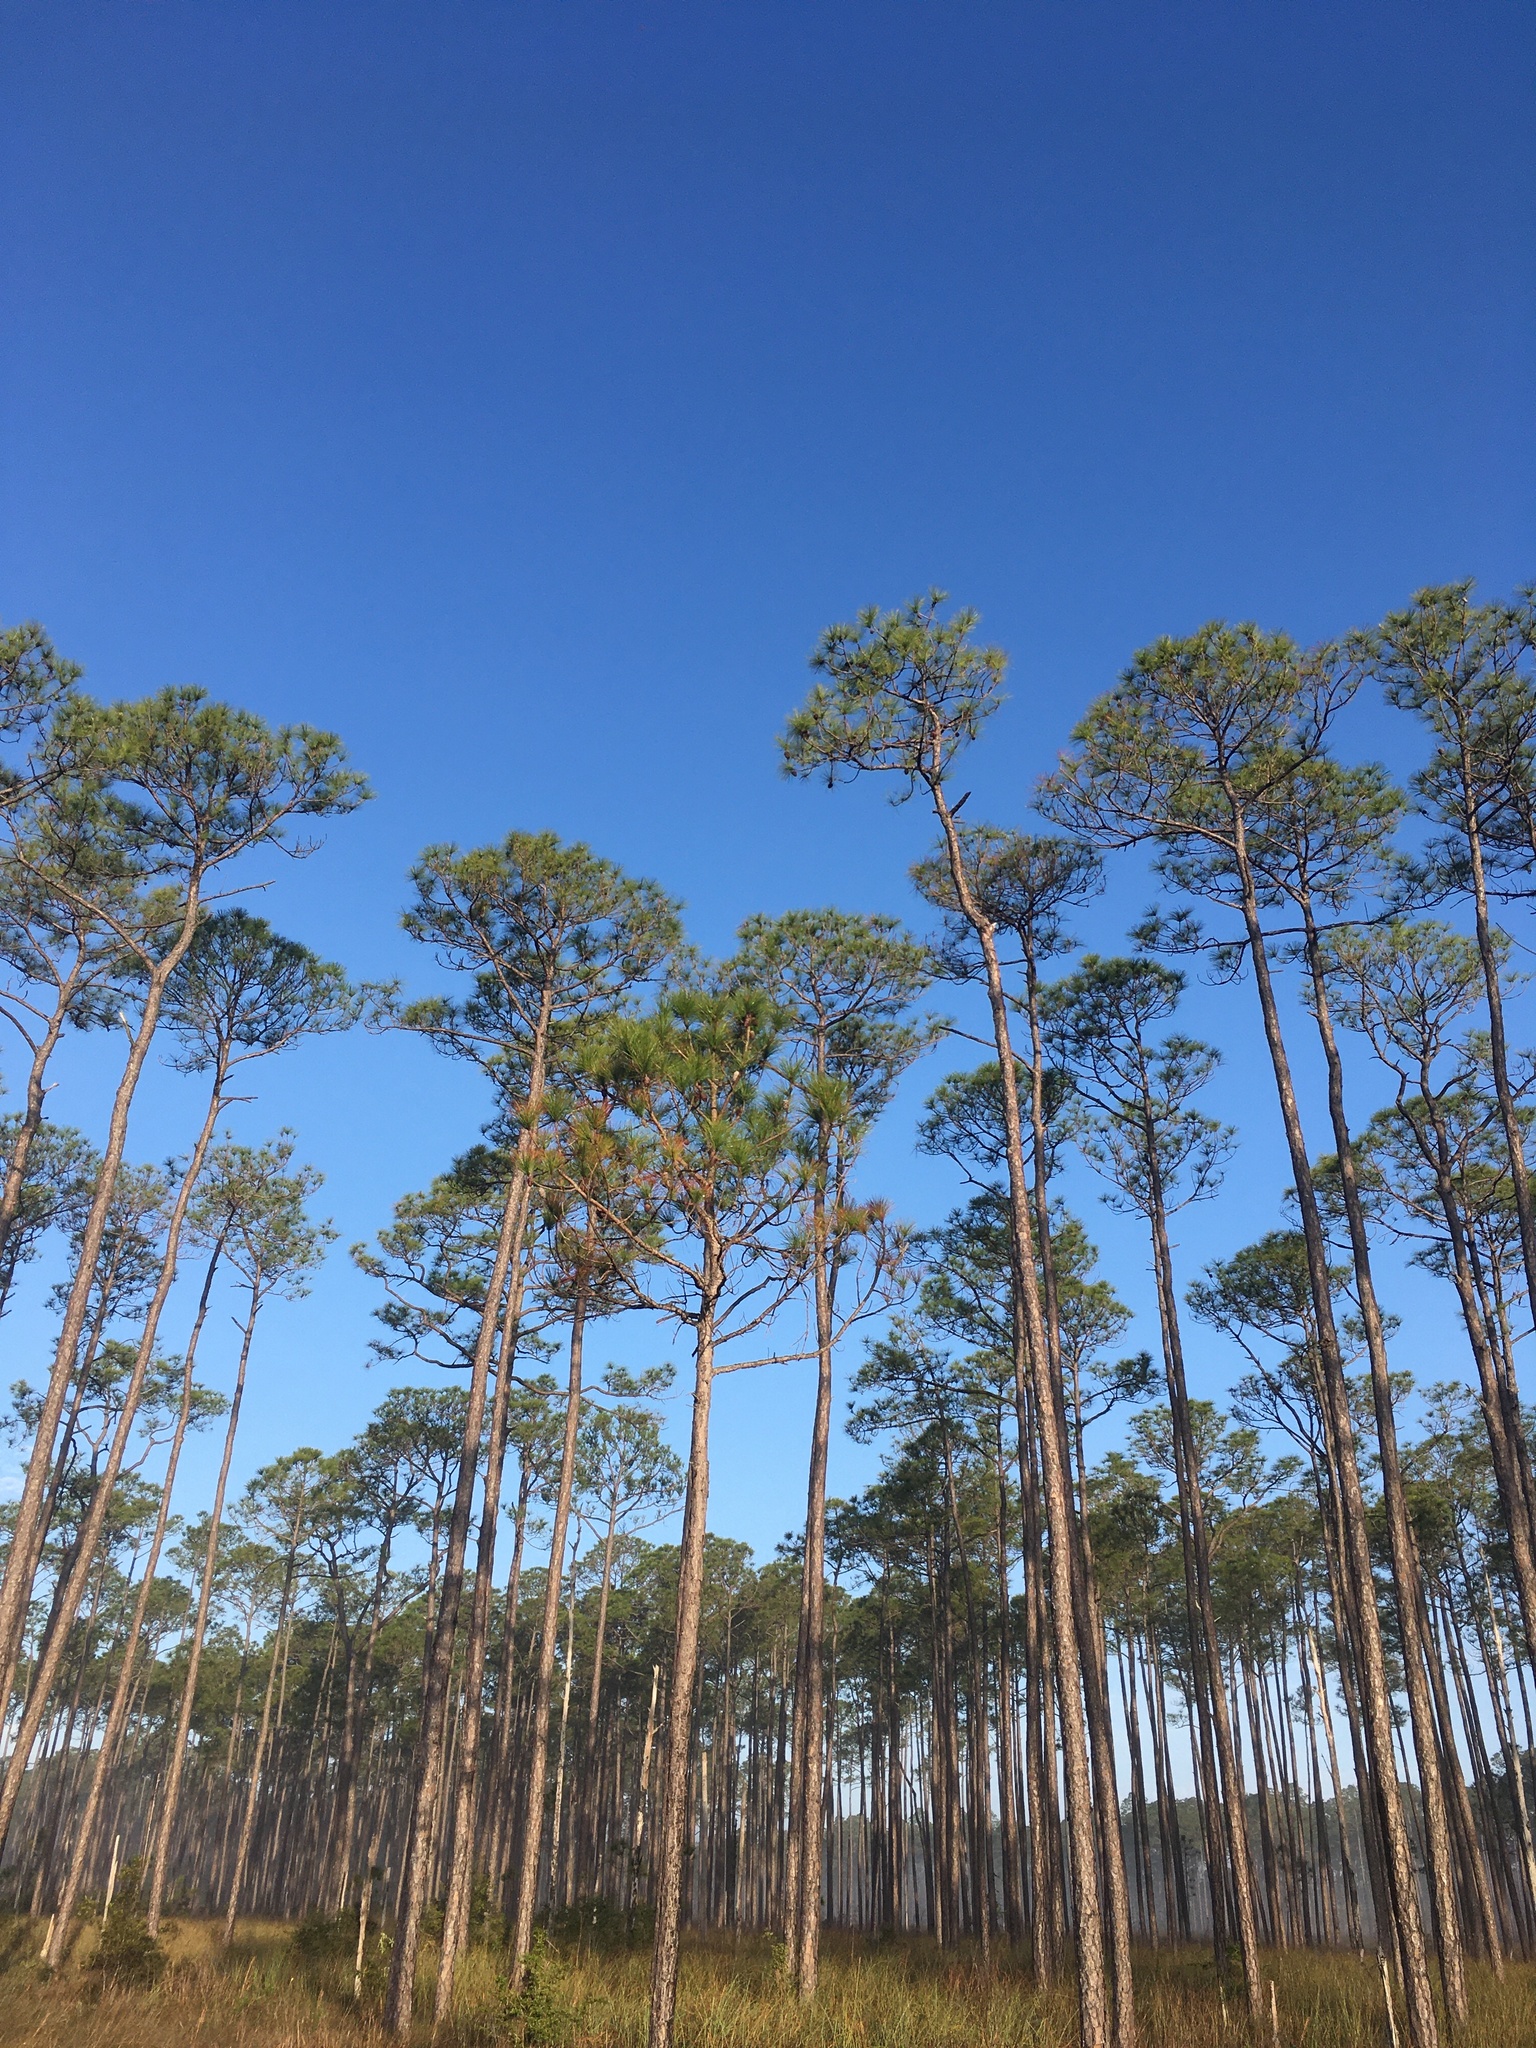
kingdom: Plantae
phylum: Tracheophyta
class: Pinopsida
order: Pinales
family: Pinaceae
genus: Pinus
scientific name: Pinus palustris
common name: Longleaf pine
